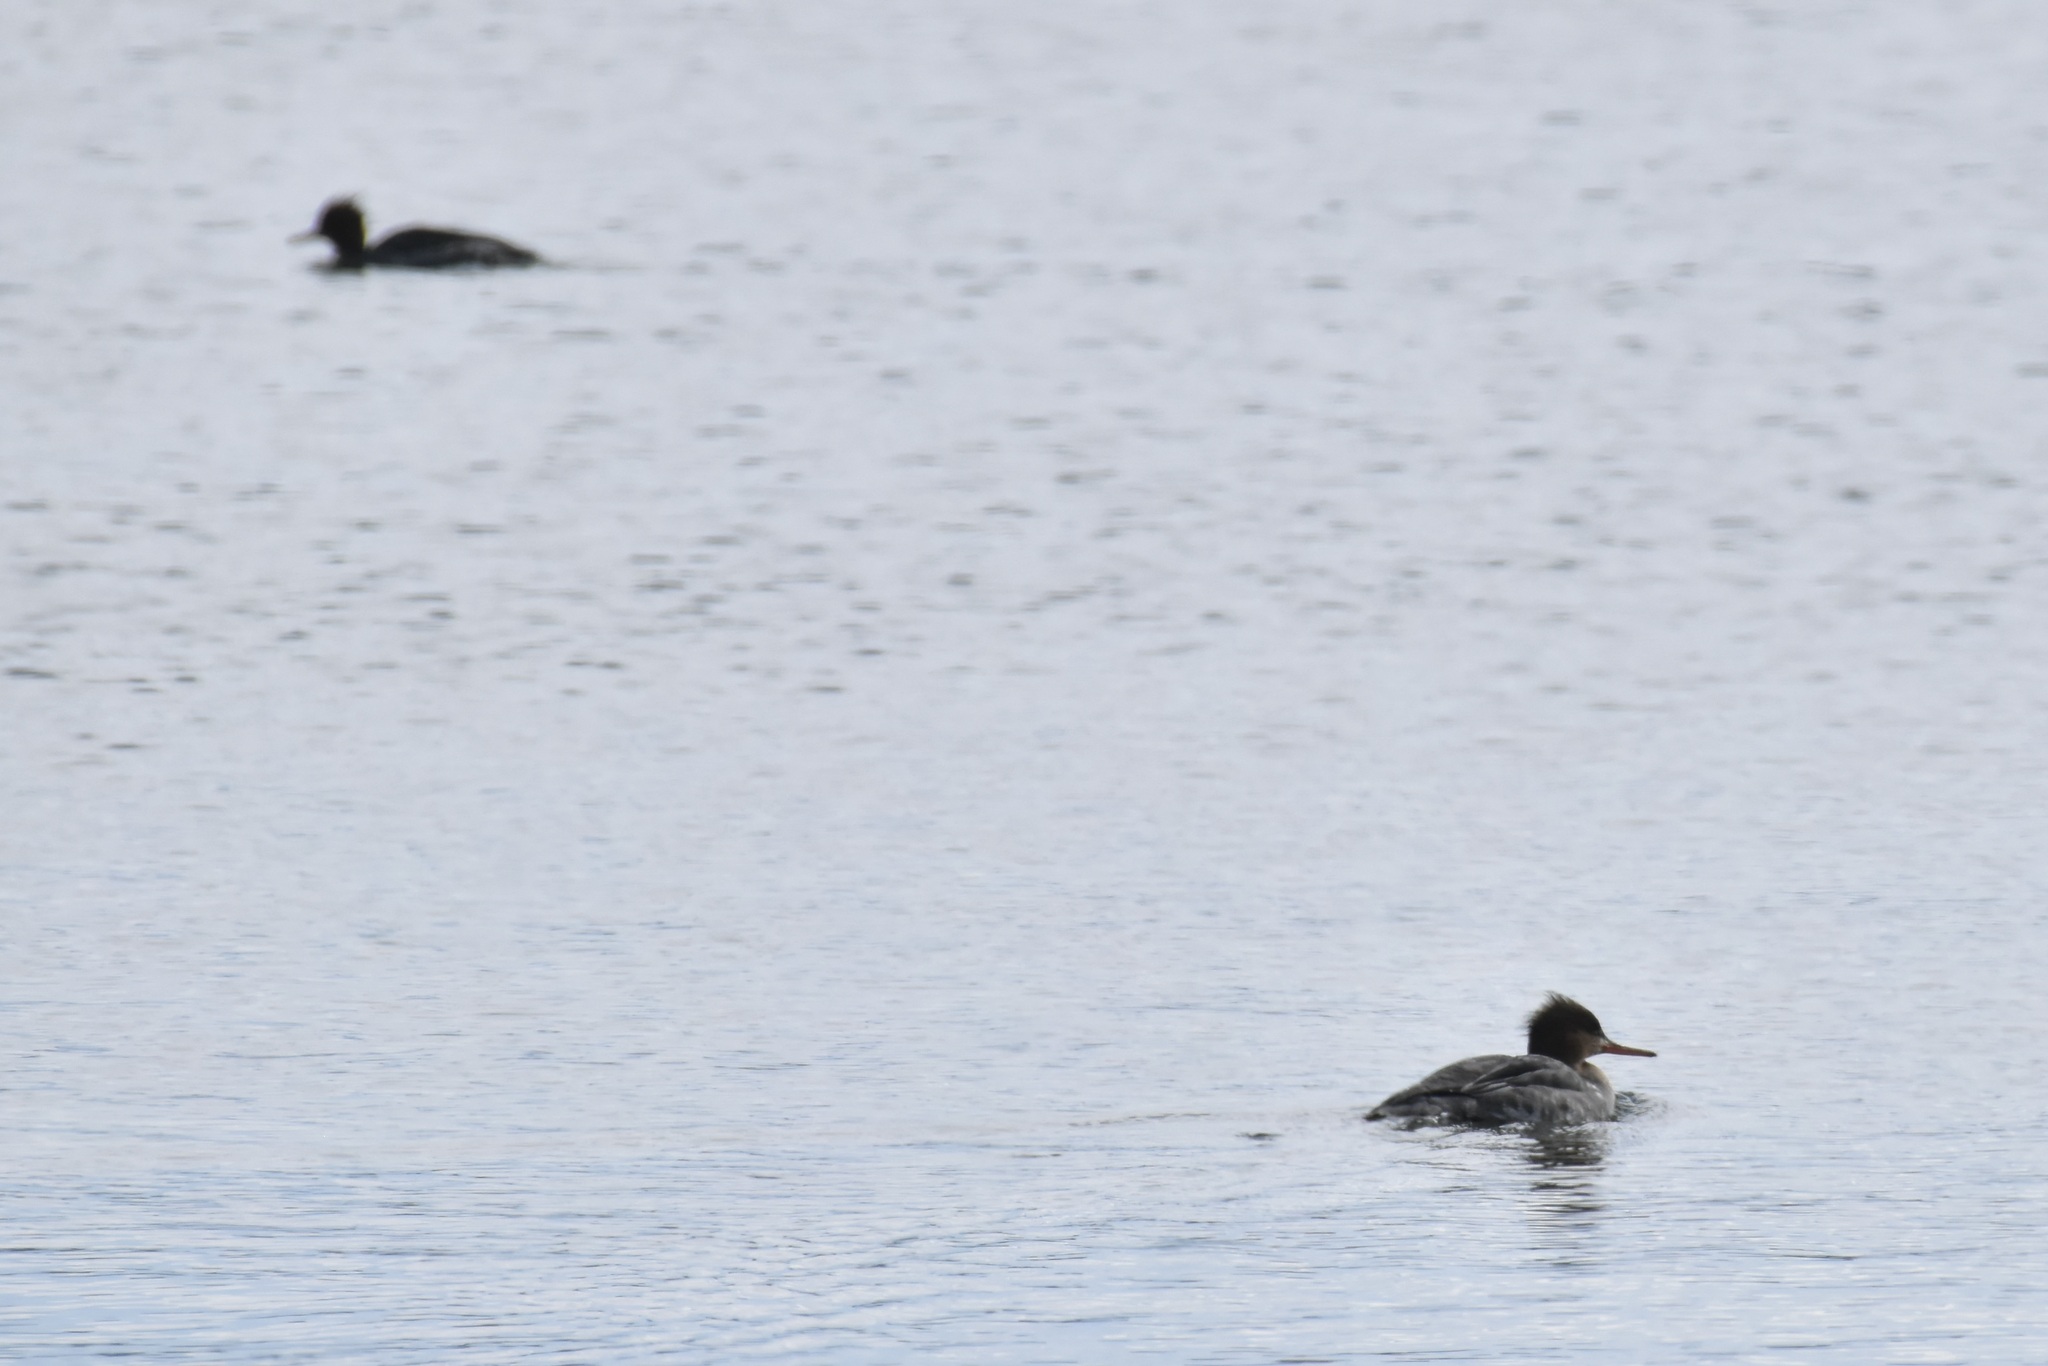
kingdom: Animalia
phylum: Chordata
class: Aves
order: Anseriformes
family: Anatidae
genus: Mergus
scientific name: Mergus serrator
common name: Red-breasted merganser
